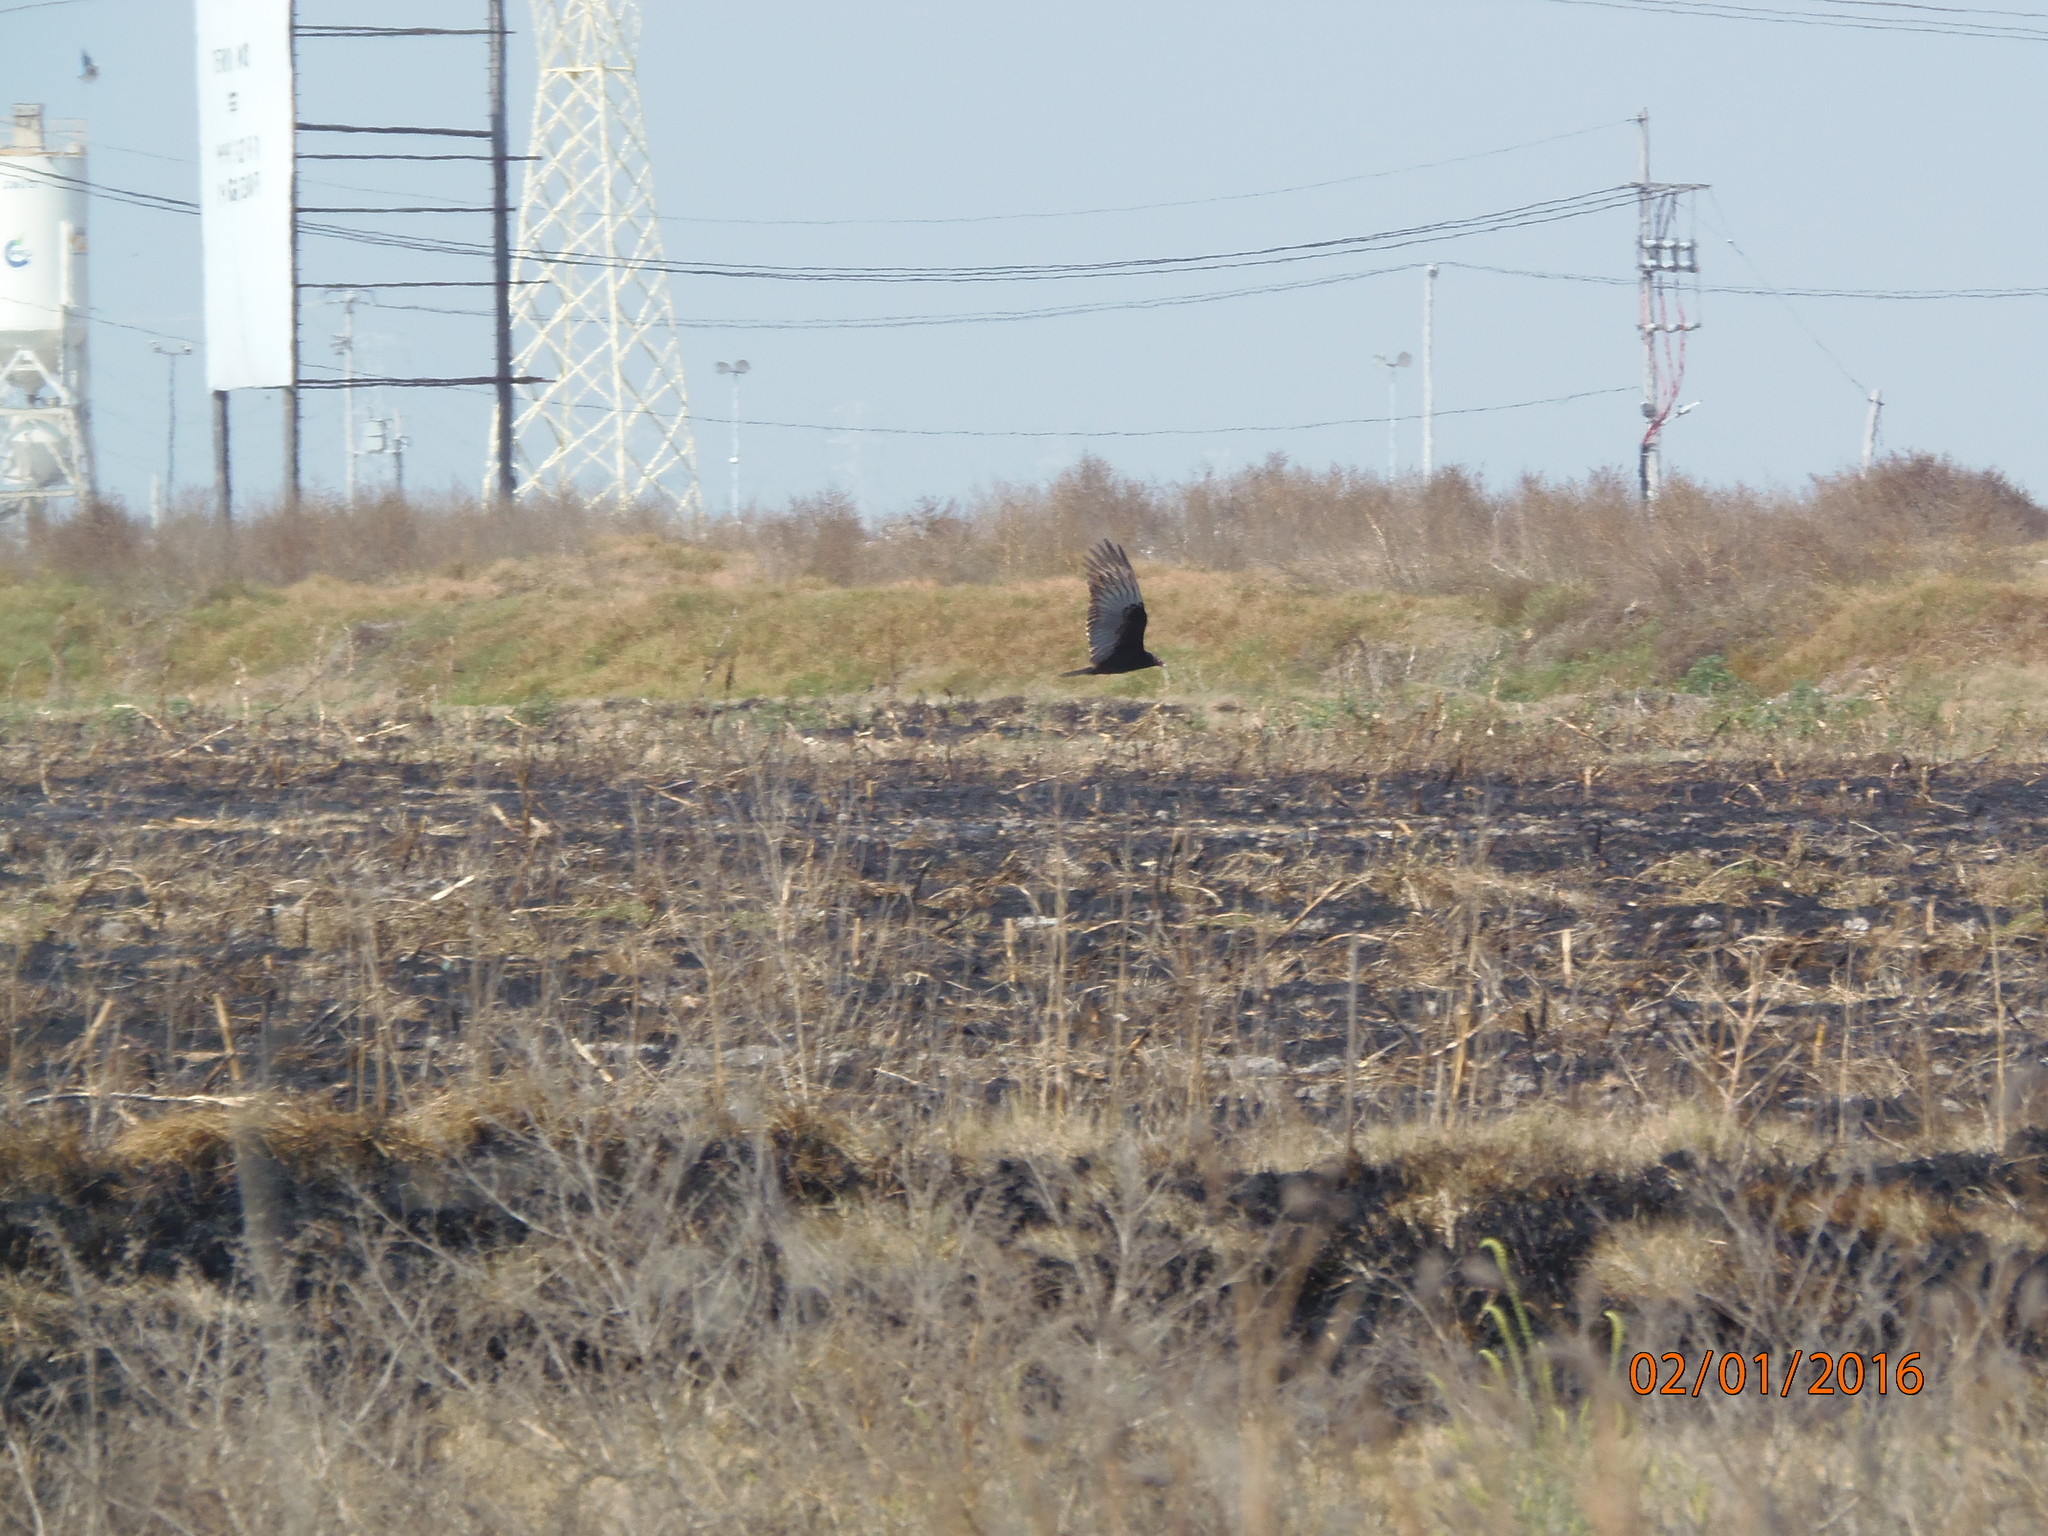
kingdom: Animalia
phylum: Chordata
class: Aves
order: Accipitriformes
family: Cathartidae
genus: Cathartes
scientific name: Cathartes aura
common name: Turkey vulture
